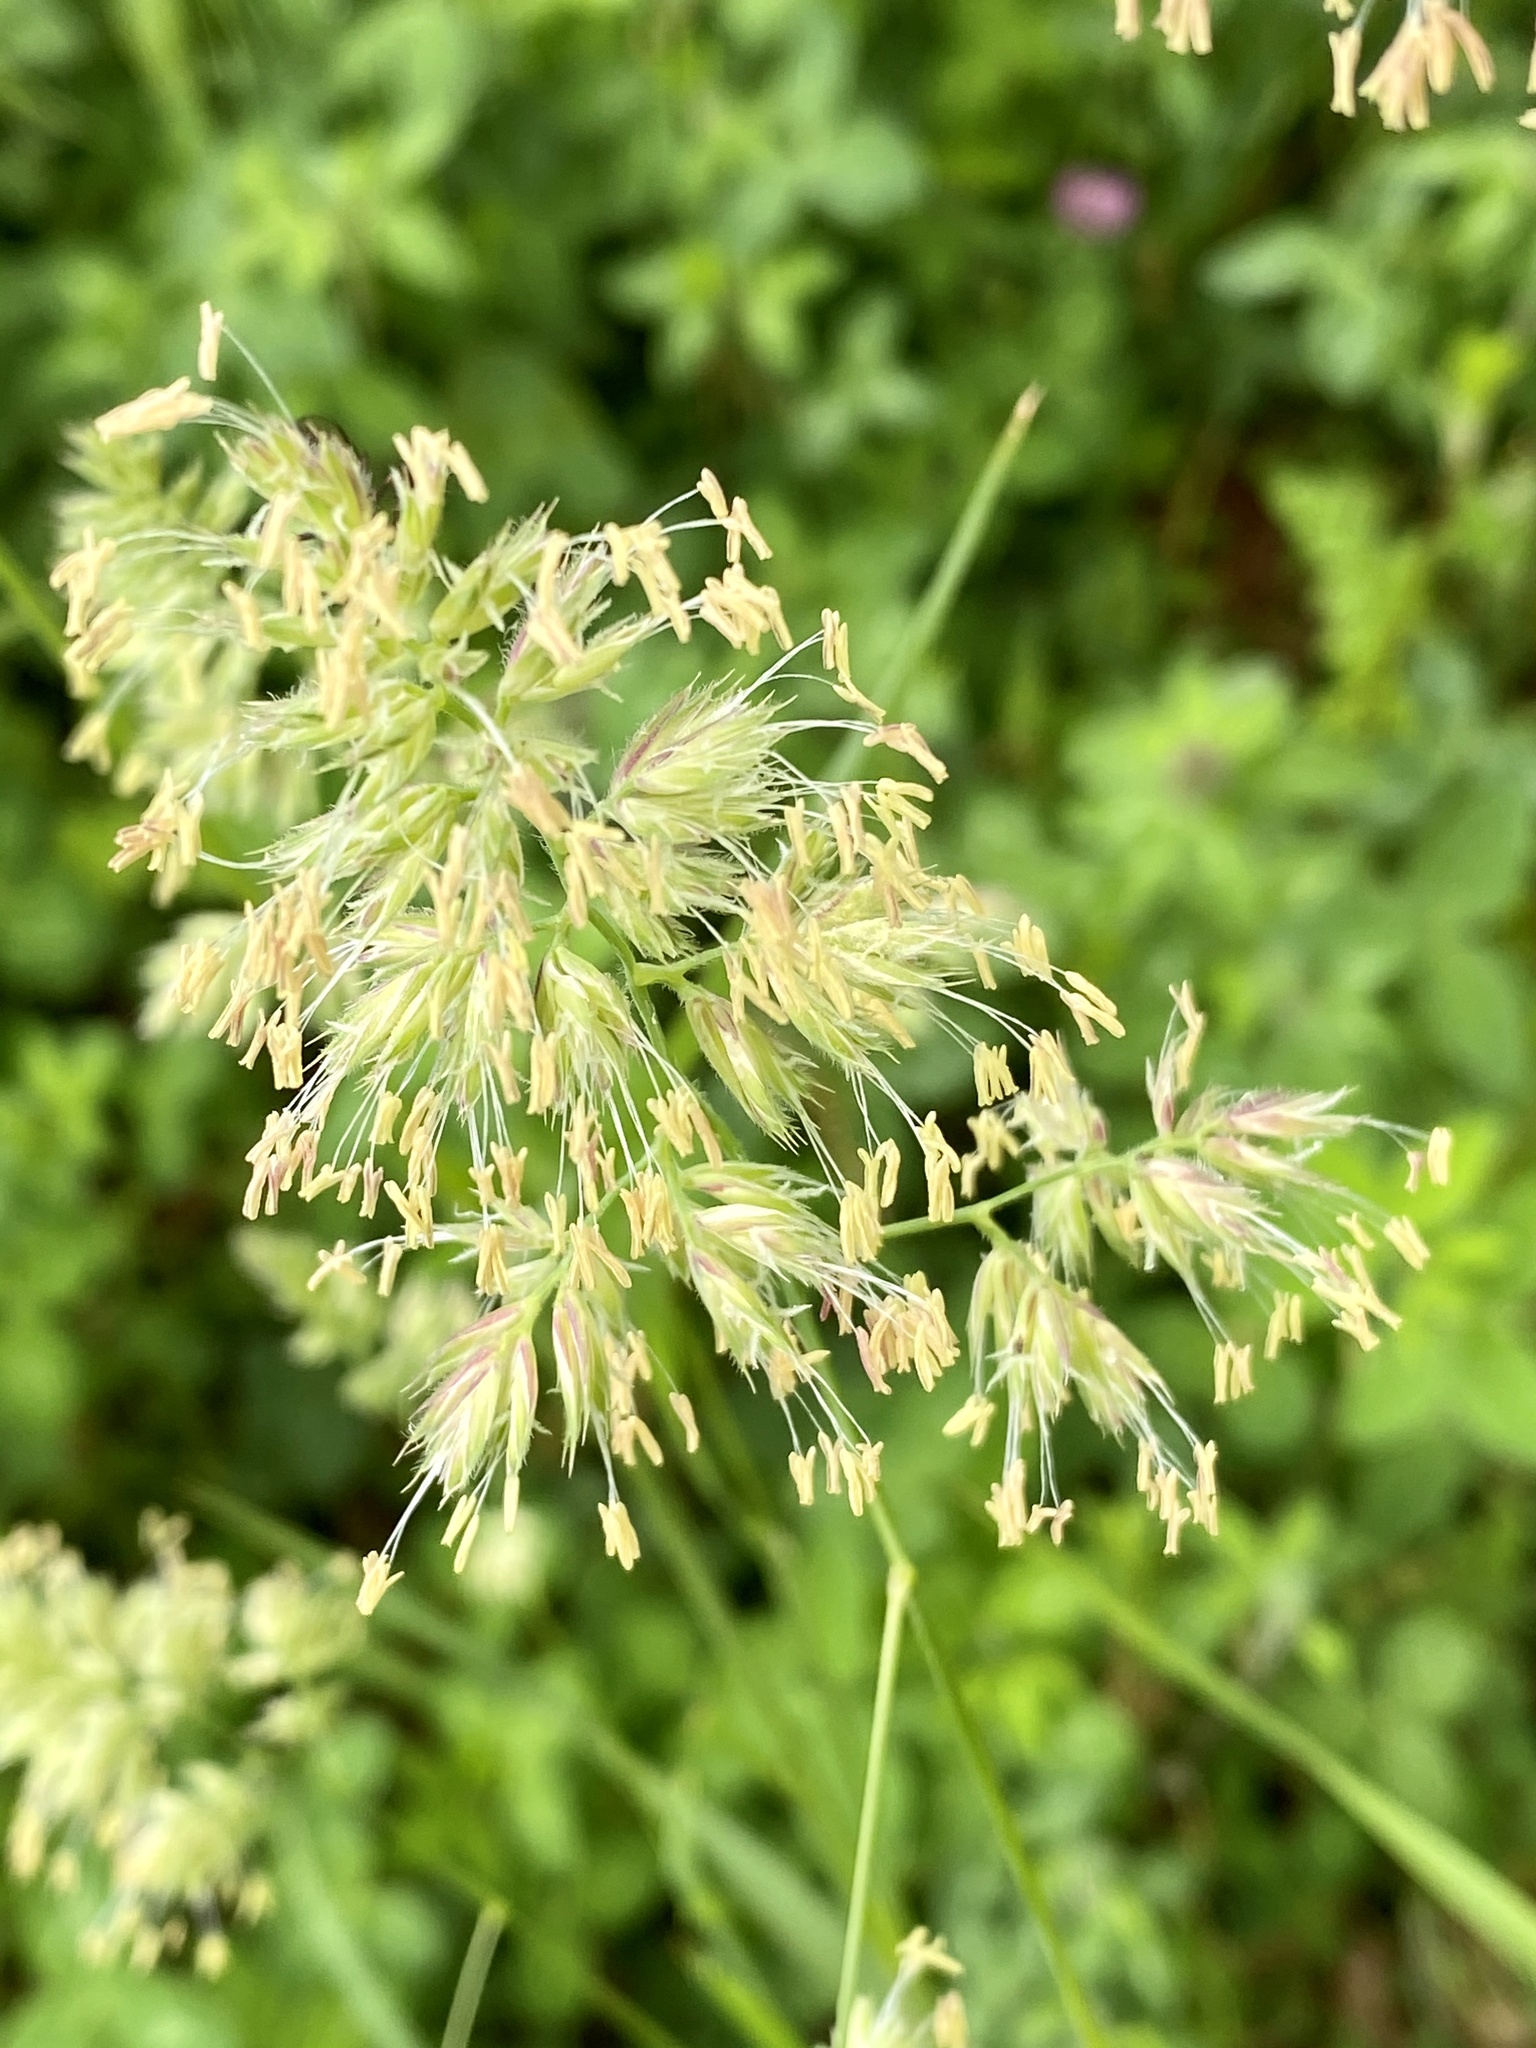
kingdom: Plantae
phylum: Tracheophyta
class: Liliopsida
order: Poales
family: Poaceae
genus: Dactylis
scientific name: Dactylis glomerata
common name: Orchardgrass
